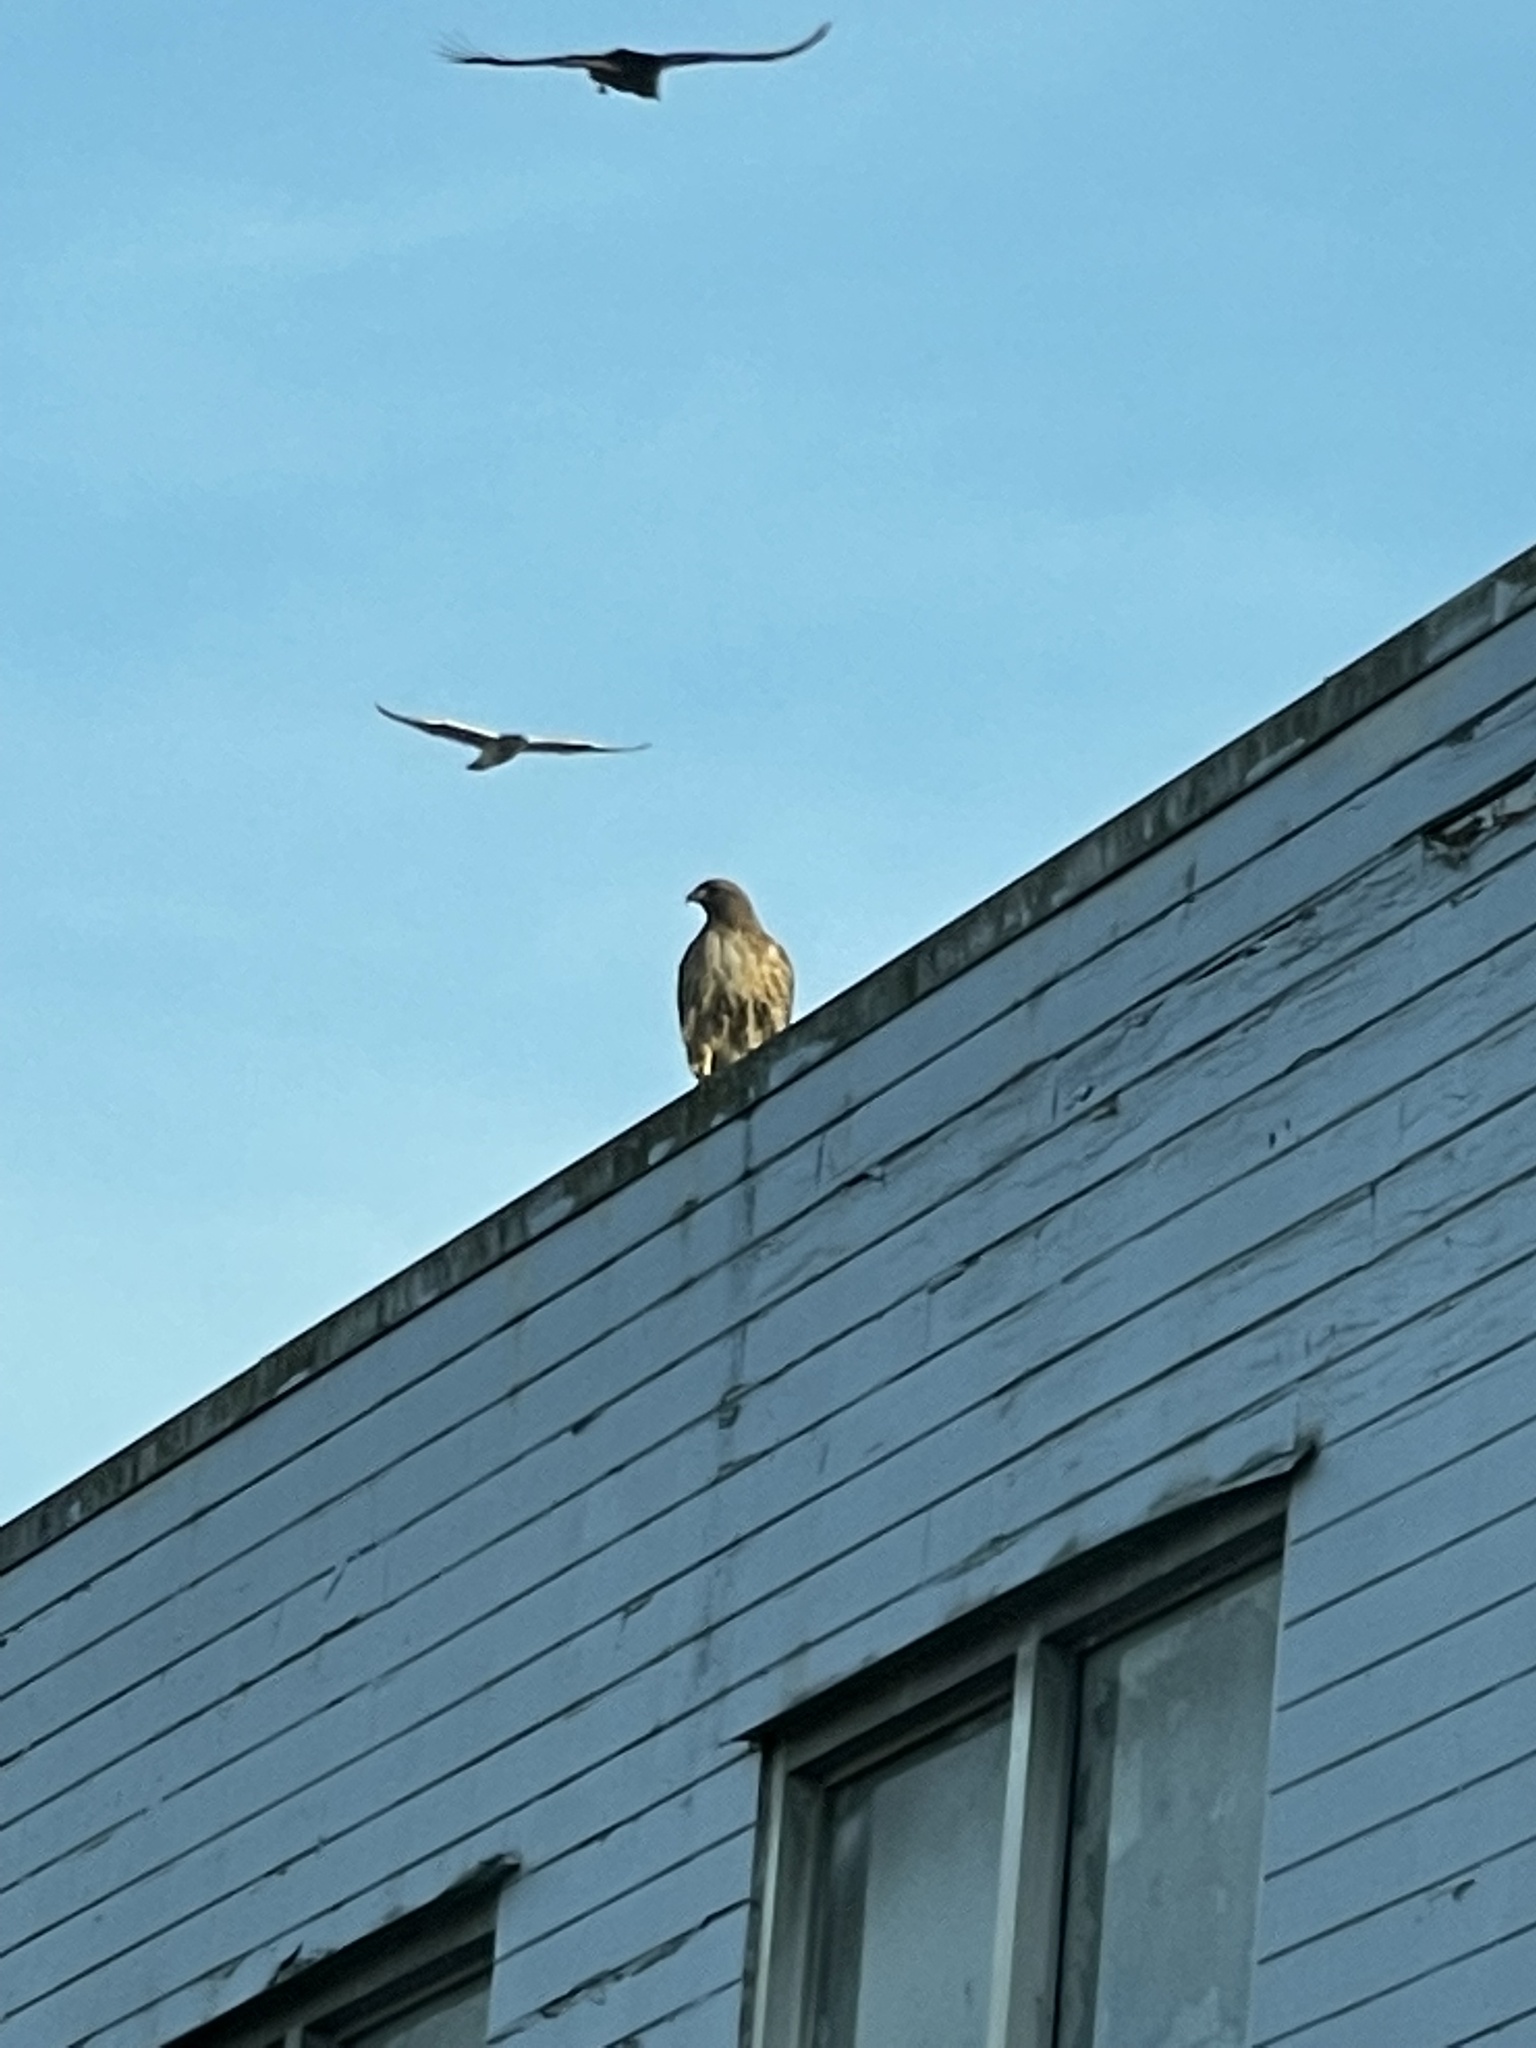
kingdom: Animalia
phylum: Chordata
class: Aves
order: Accipitriformes
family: Accipitridae
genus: Buteo
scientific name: Buteo jamaicensis
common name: Red-tailed hawk
